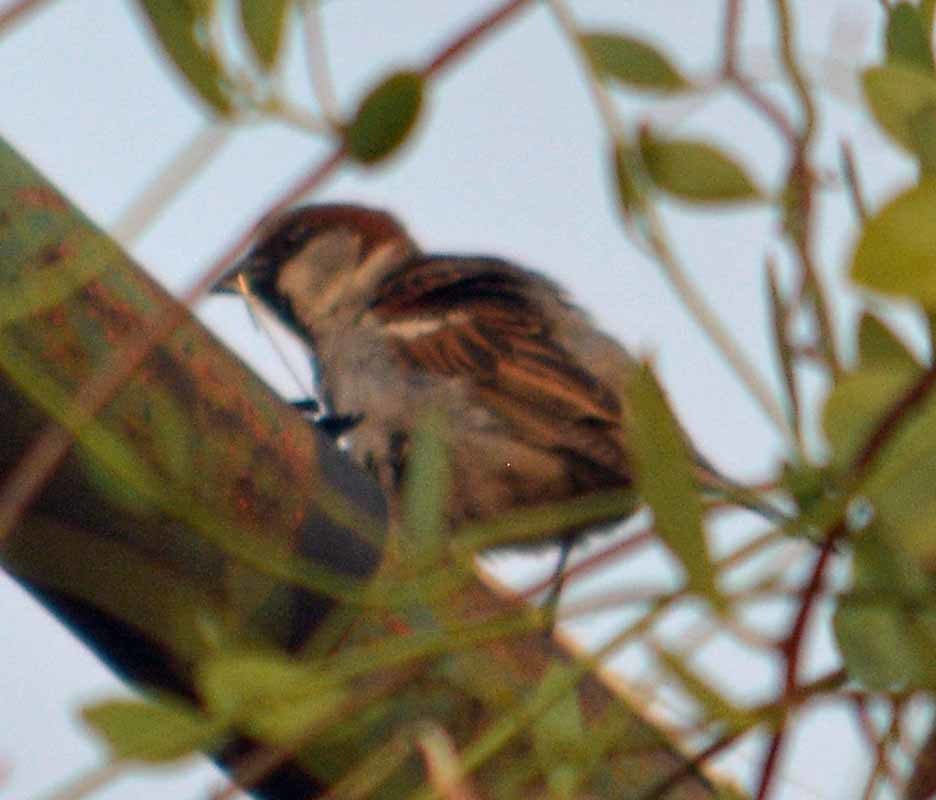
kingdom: Animalia
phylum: Chordata
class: Aves
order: Passeriformes
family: Passeridae
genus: Passer
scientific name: Passer domesticus
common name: House sparrow
